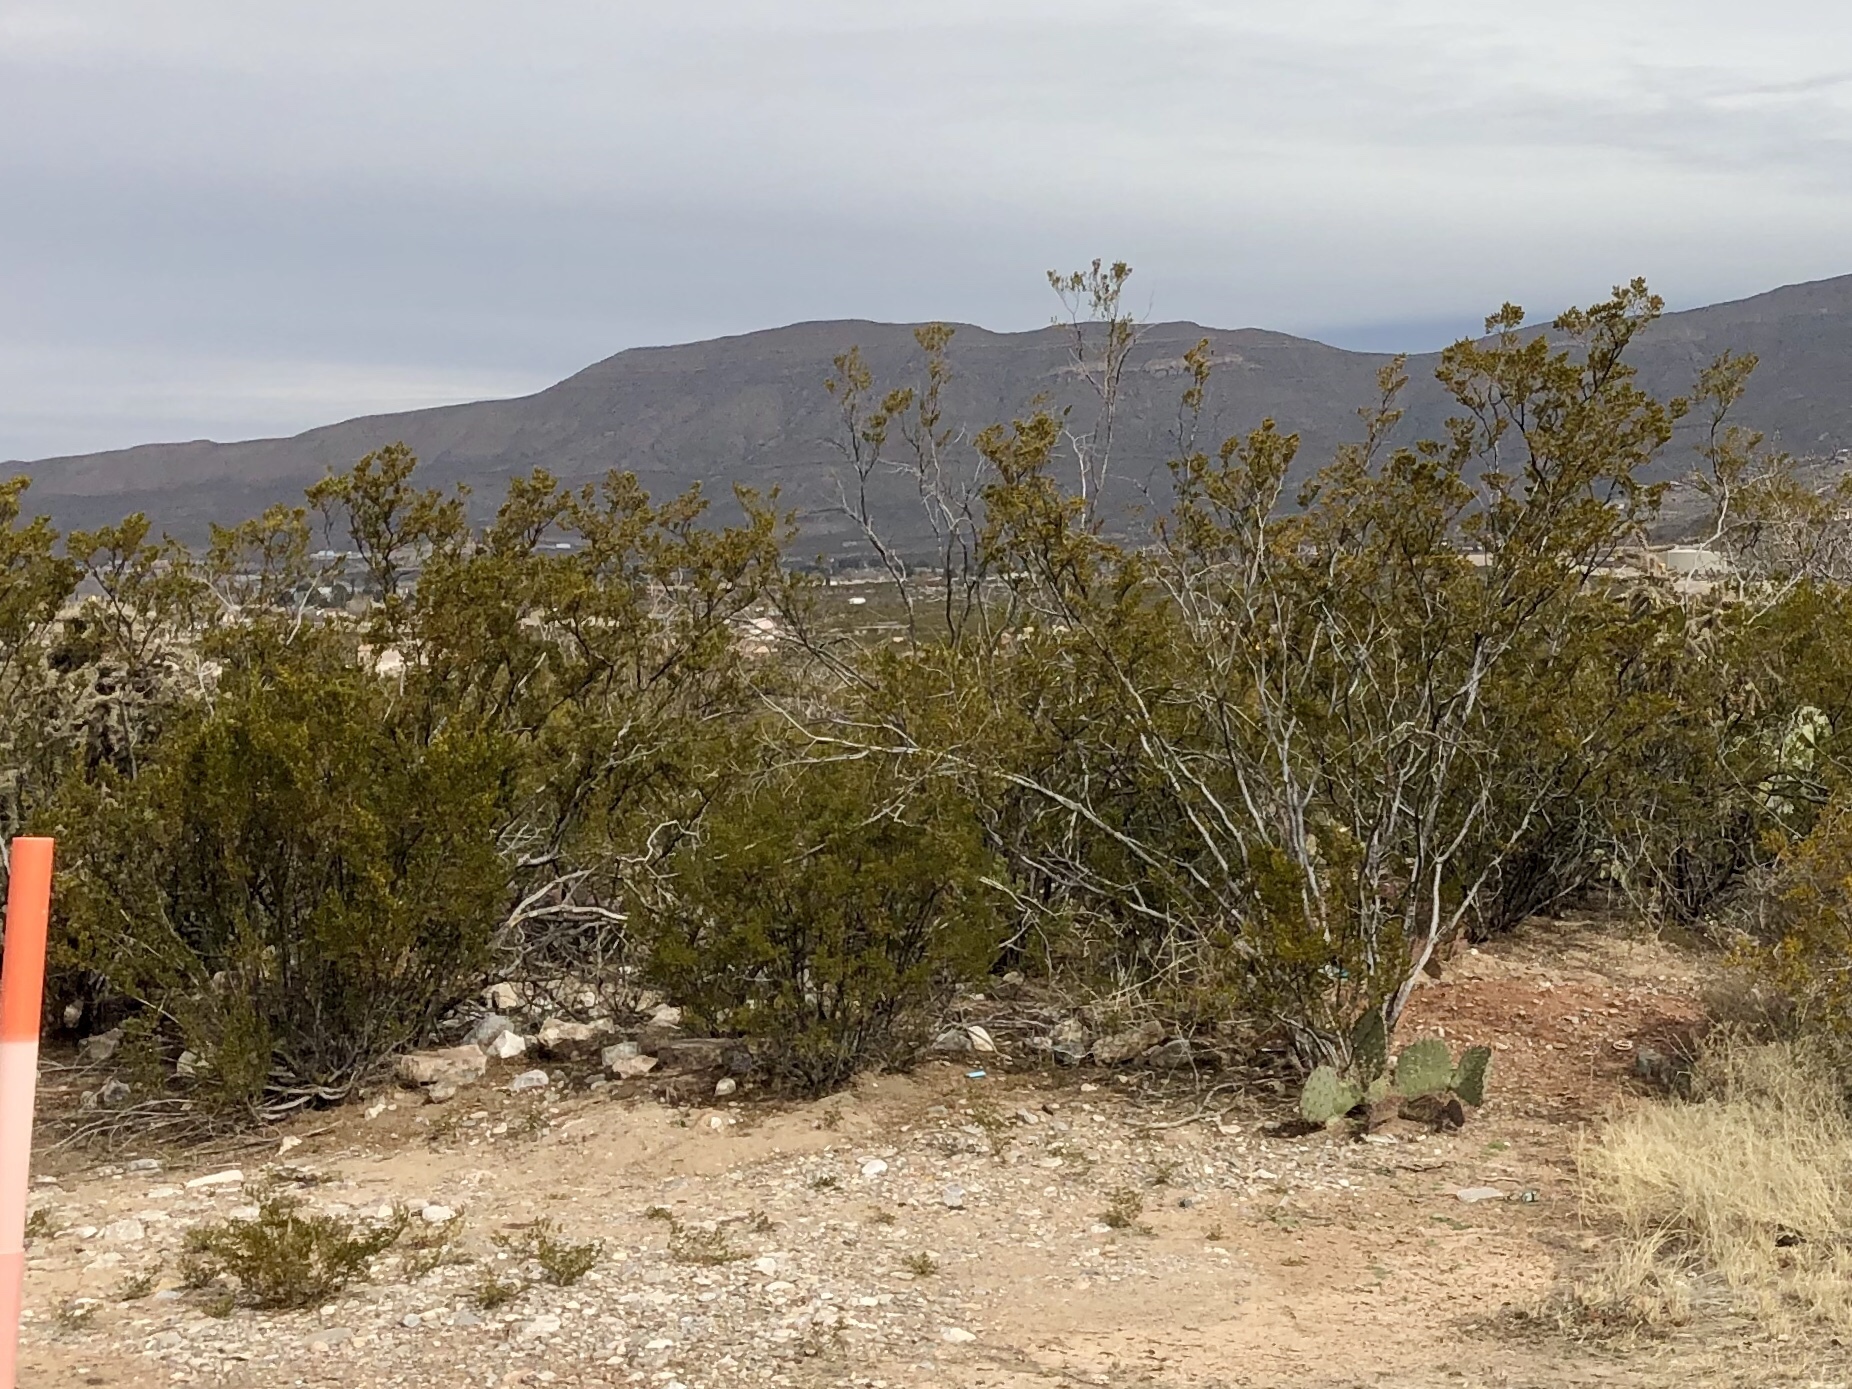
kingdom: Plantae
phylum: Tracheophyta
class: Magnoliopsida
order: Zygophyllales
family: Zygophyllaceae
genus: Larrea
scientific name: Larrea tridentata
